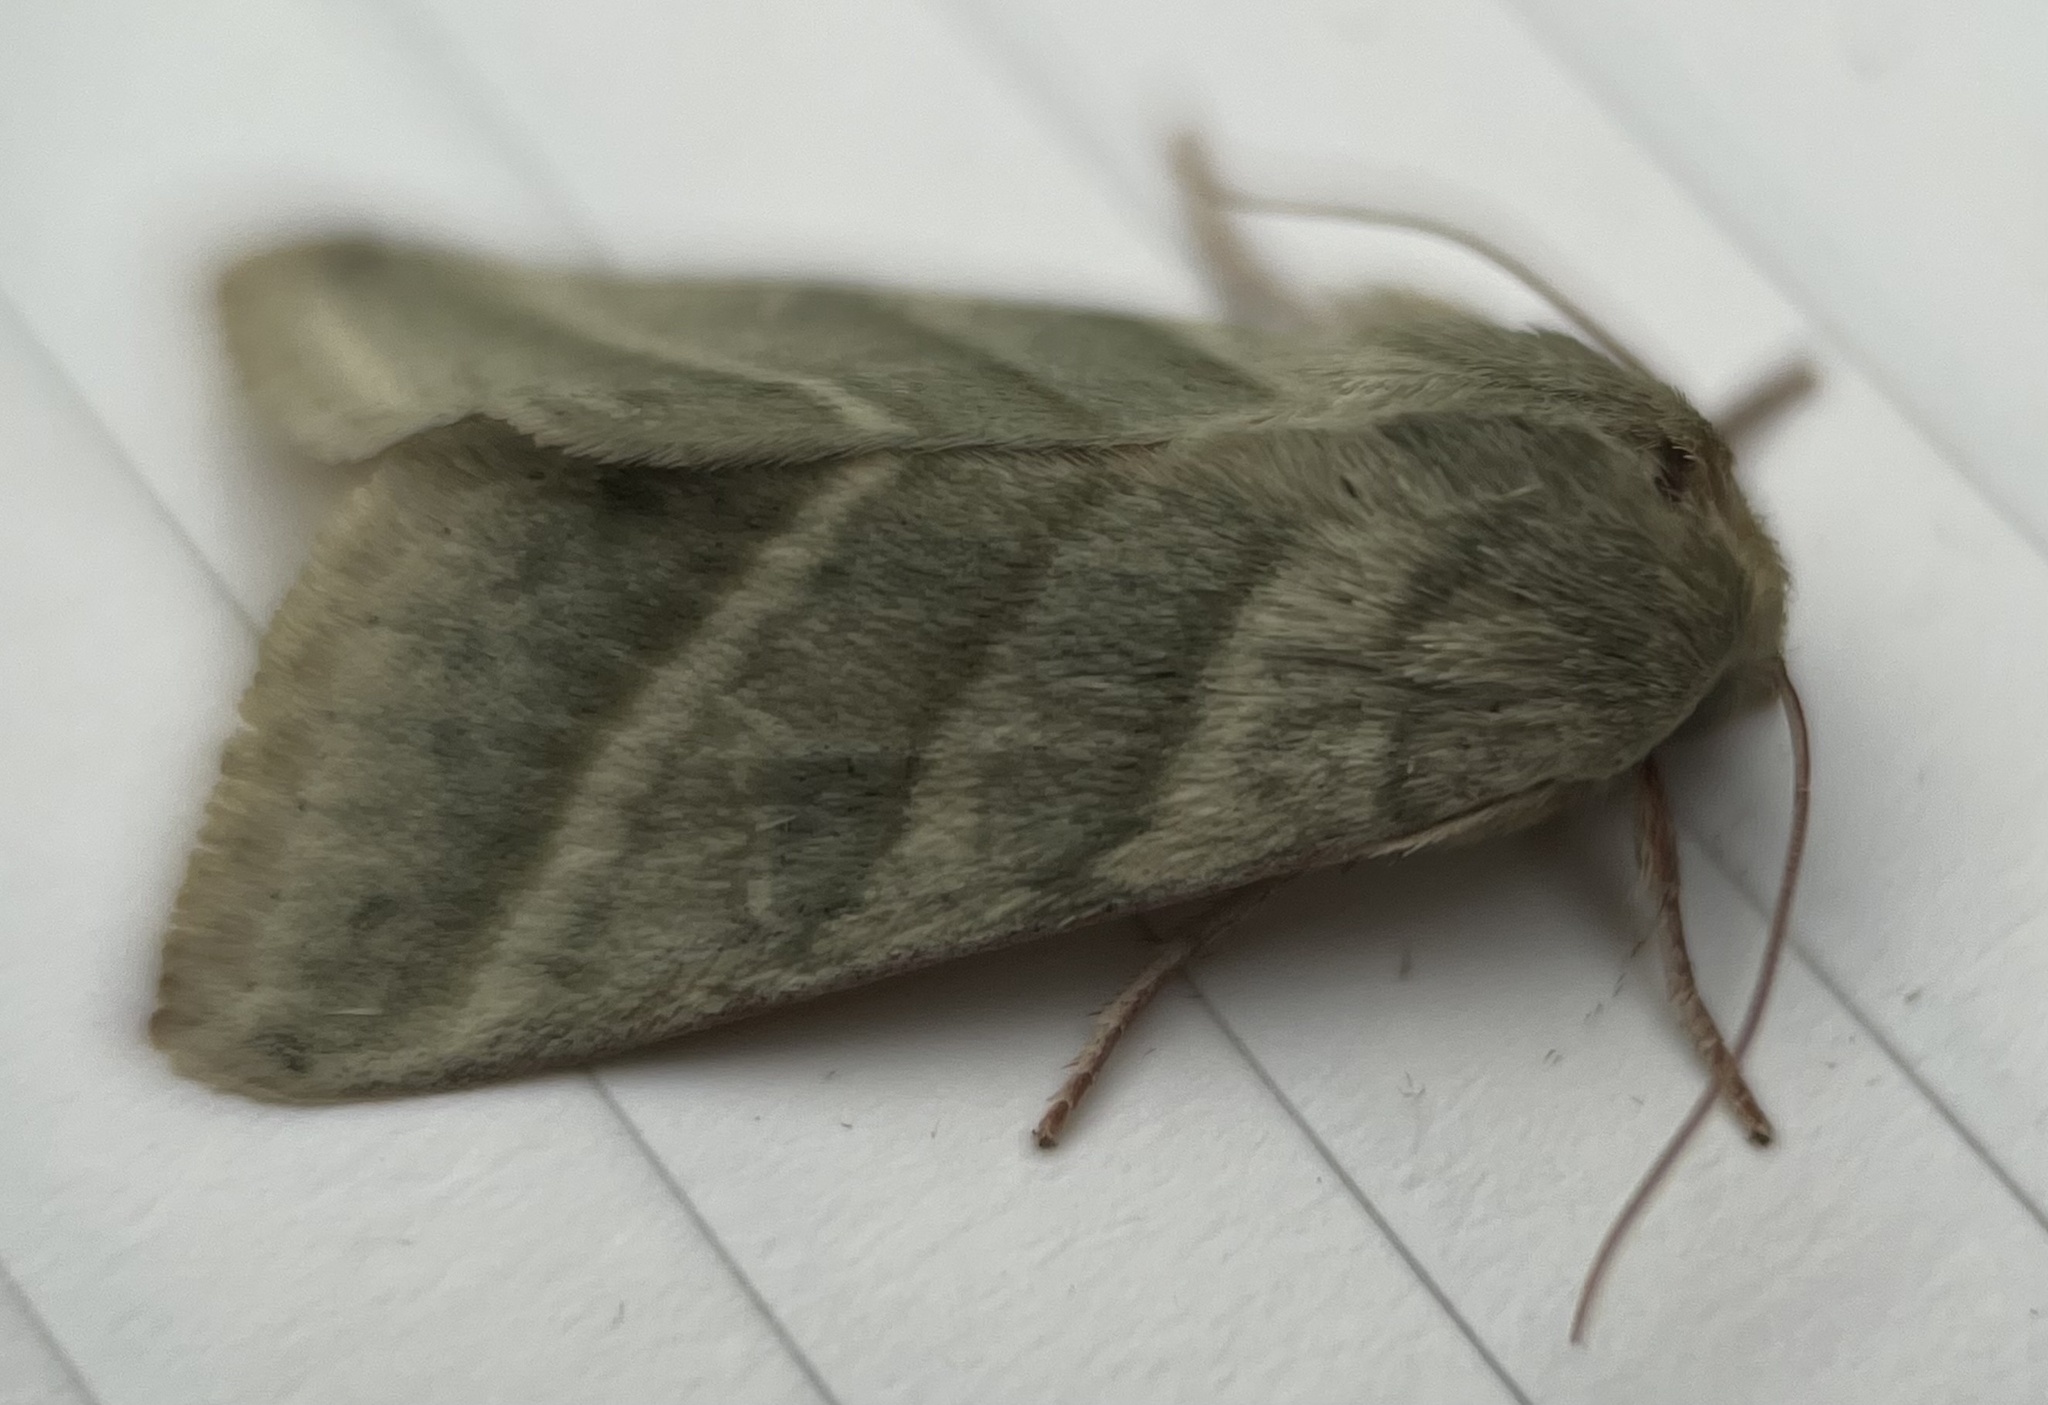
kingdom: Animalia
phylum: Arthropoda
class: Insecta
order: Lepidoptera
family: Noctuidae
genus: Chloridea
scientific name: Chloridea virescens
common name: Tobacco budworm
